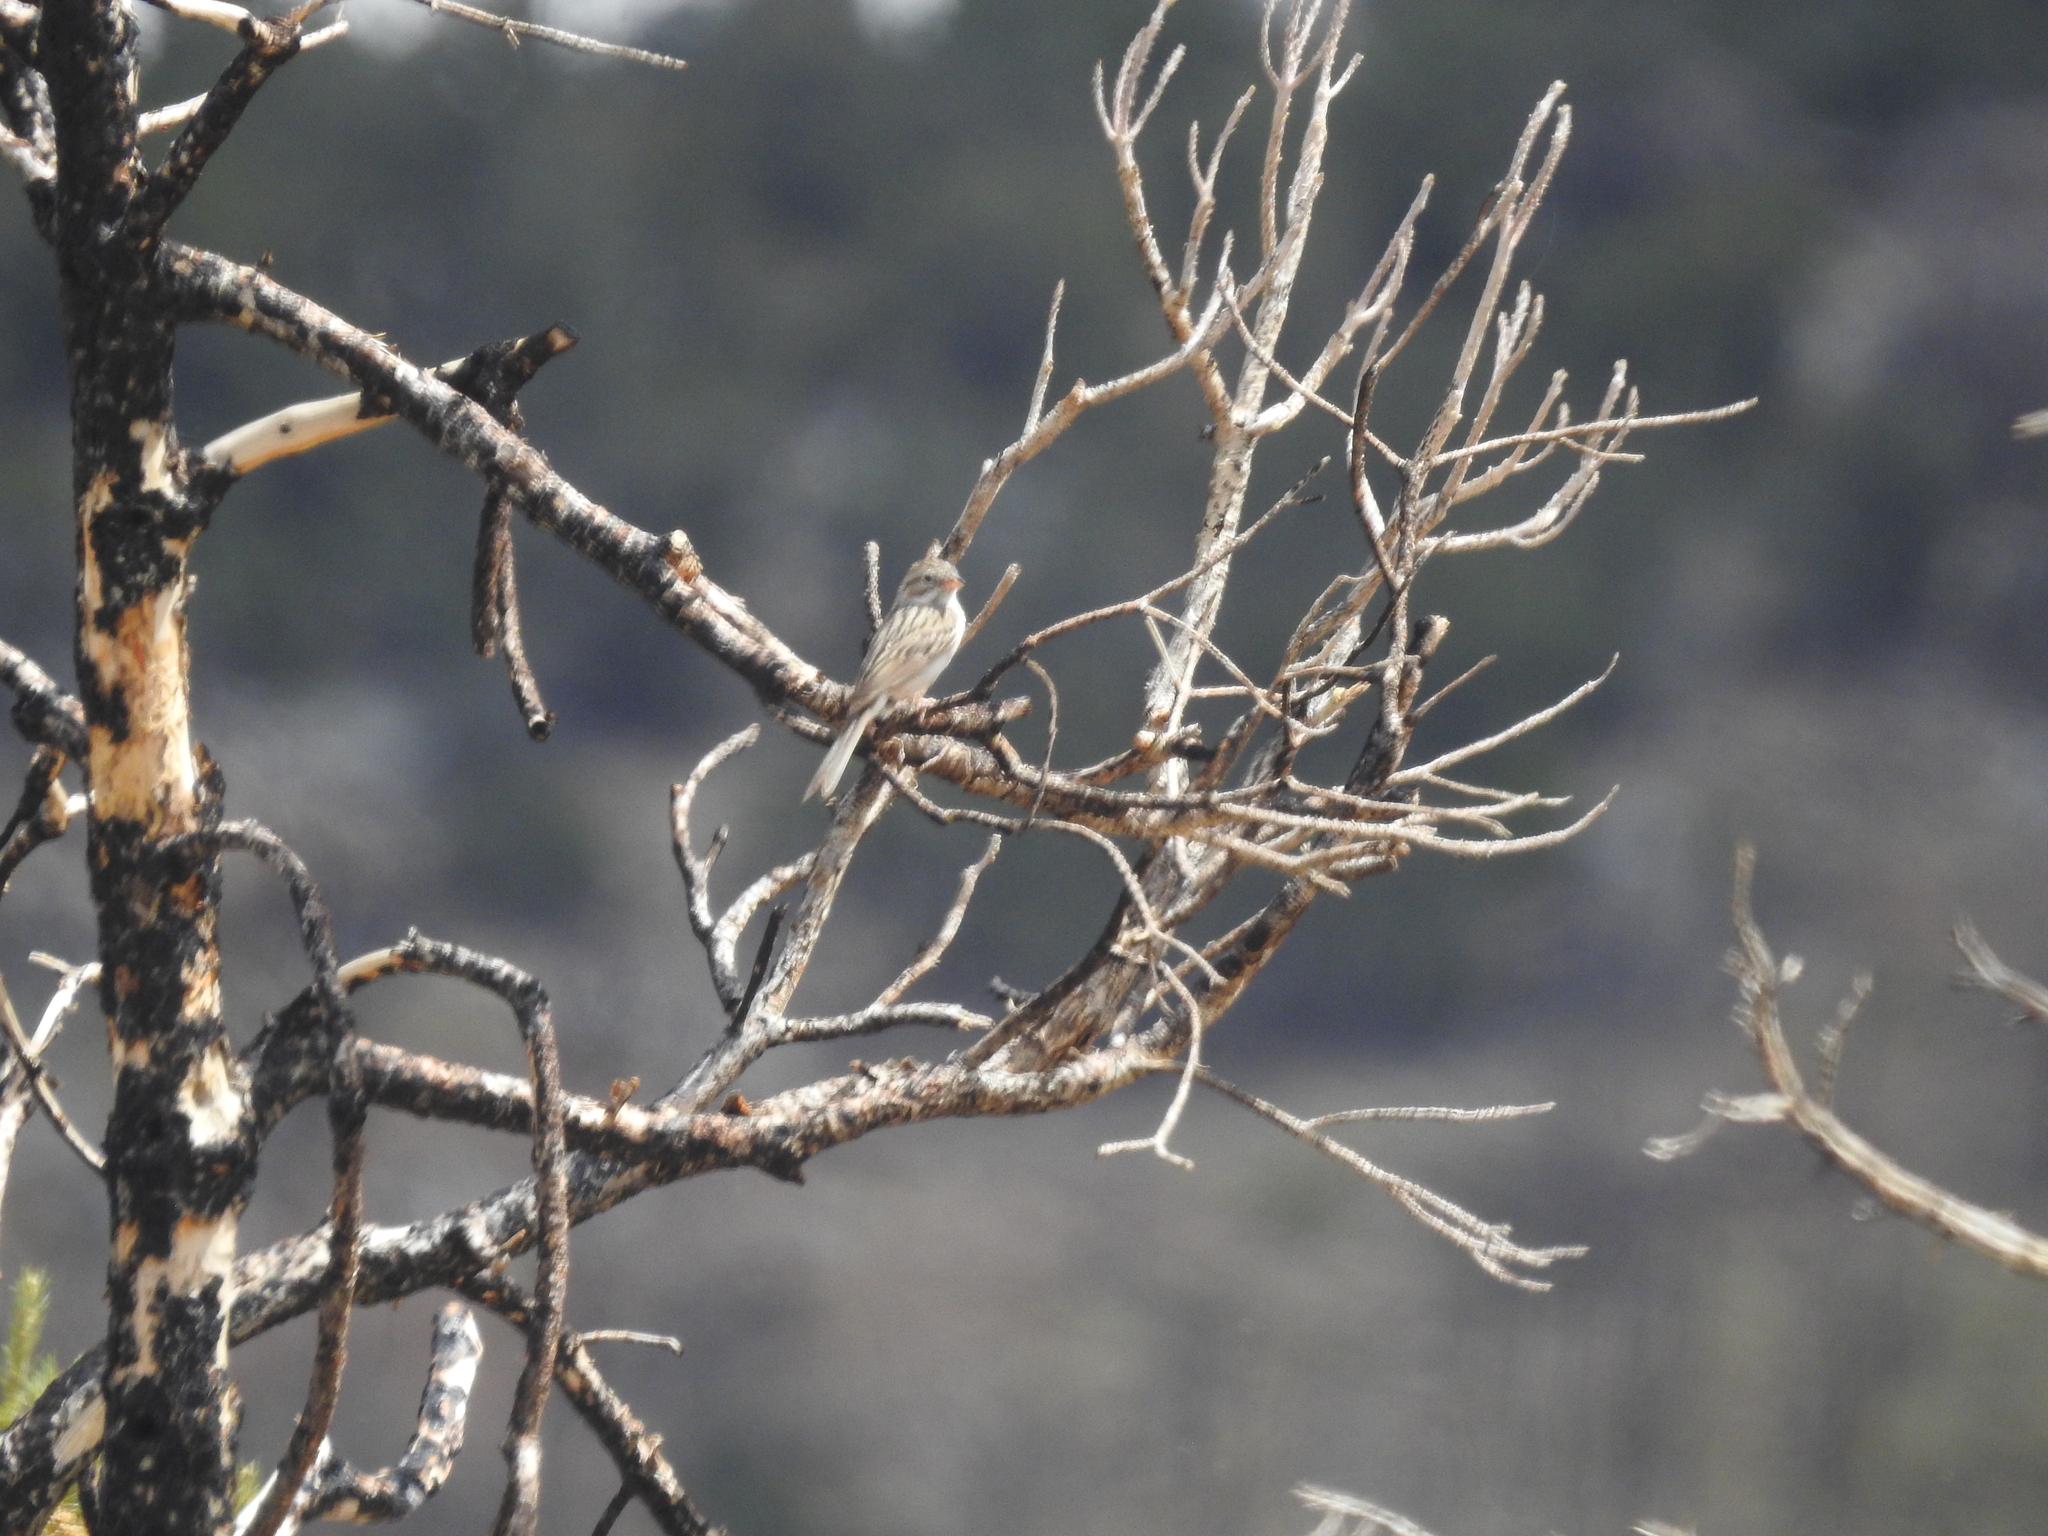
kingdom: Animalia
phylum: Chordata
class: Aves
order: Passeriformes
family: Passerellidae
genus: Spizella
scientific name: Spizella breweri
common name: Brewer's sparrow
